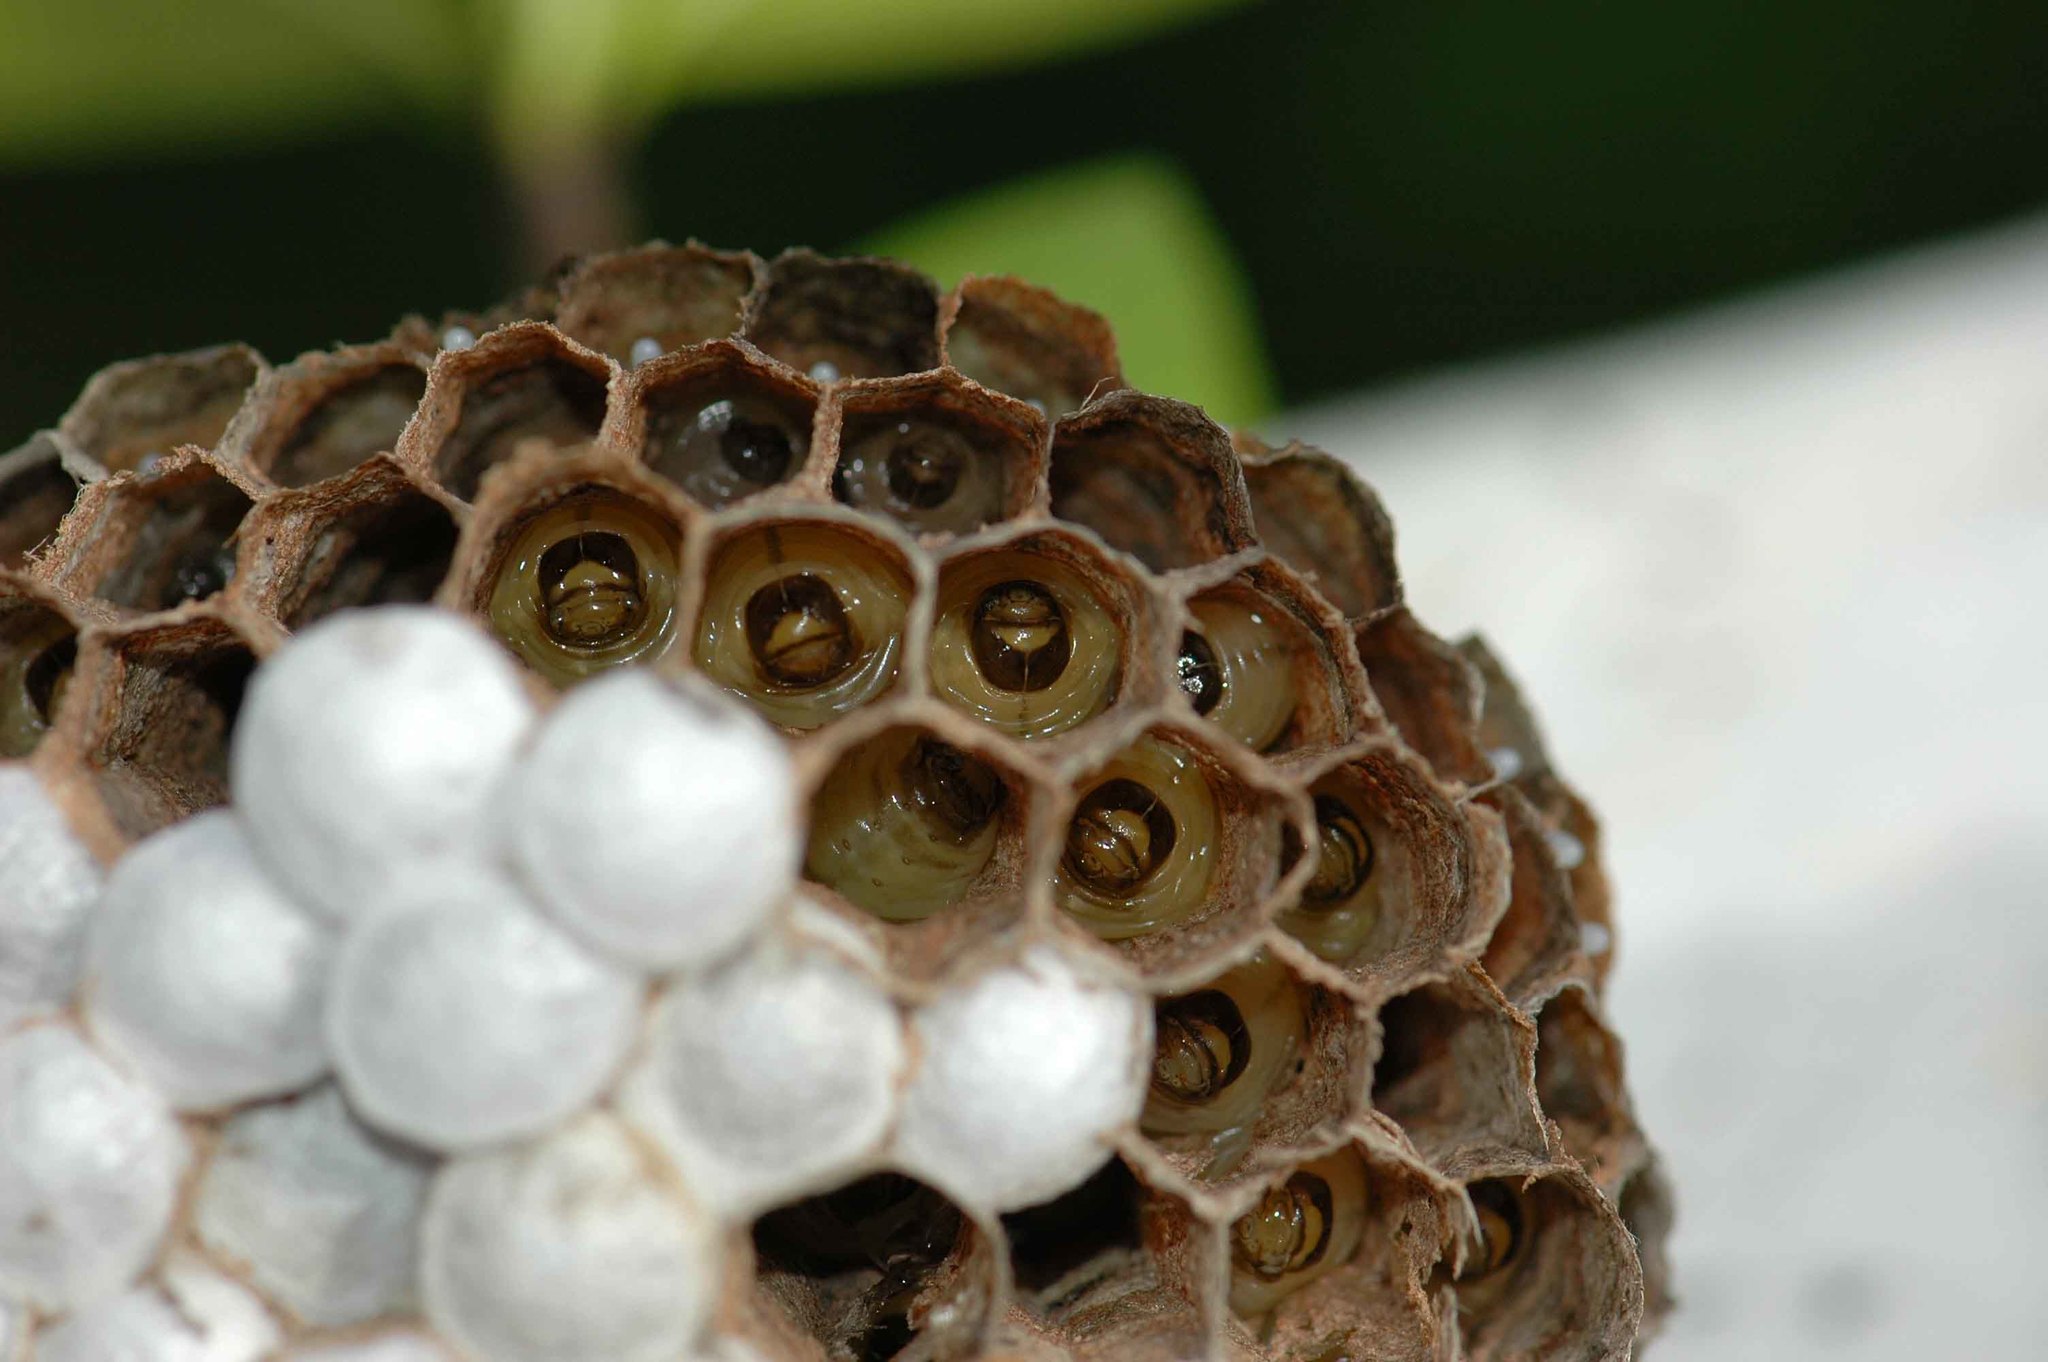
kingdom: Animalia
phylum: Arthropoda
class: Insecta
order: Hymenoptera
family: Eumenidae
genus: Polistes
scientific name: Polistes
